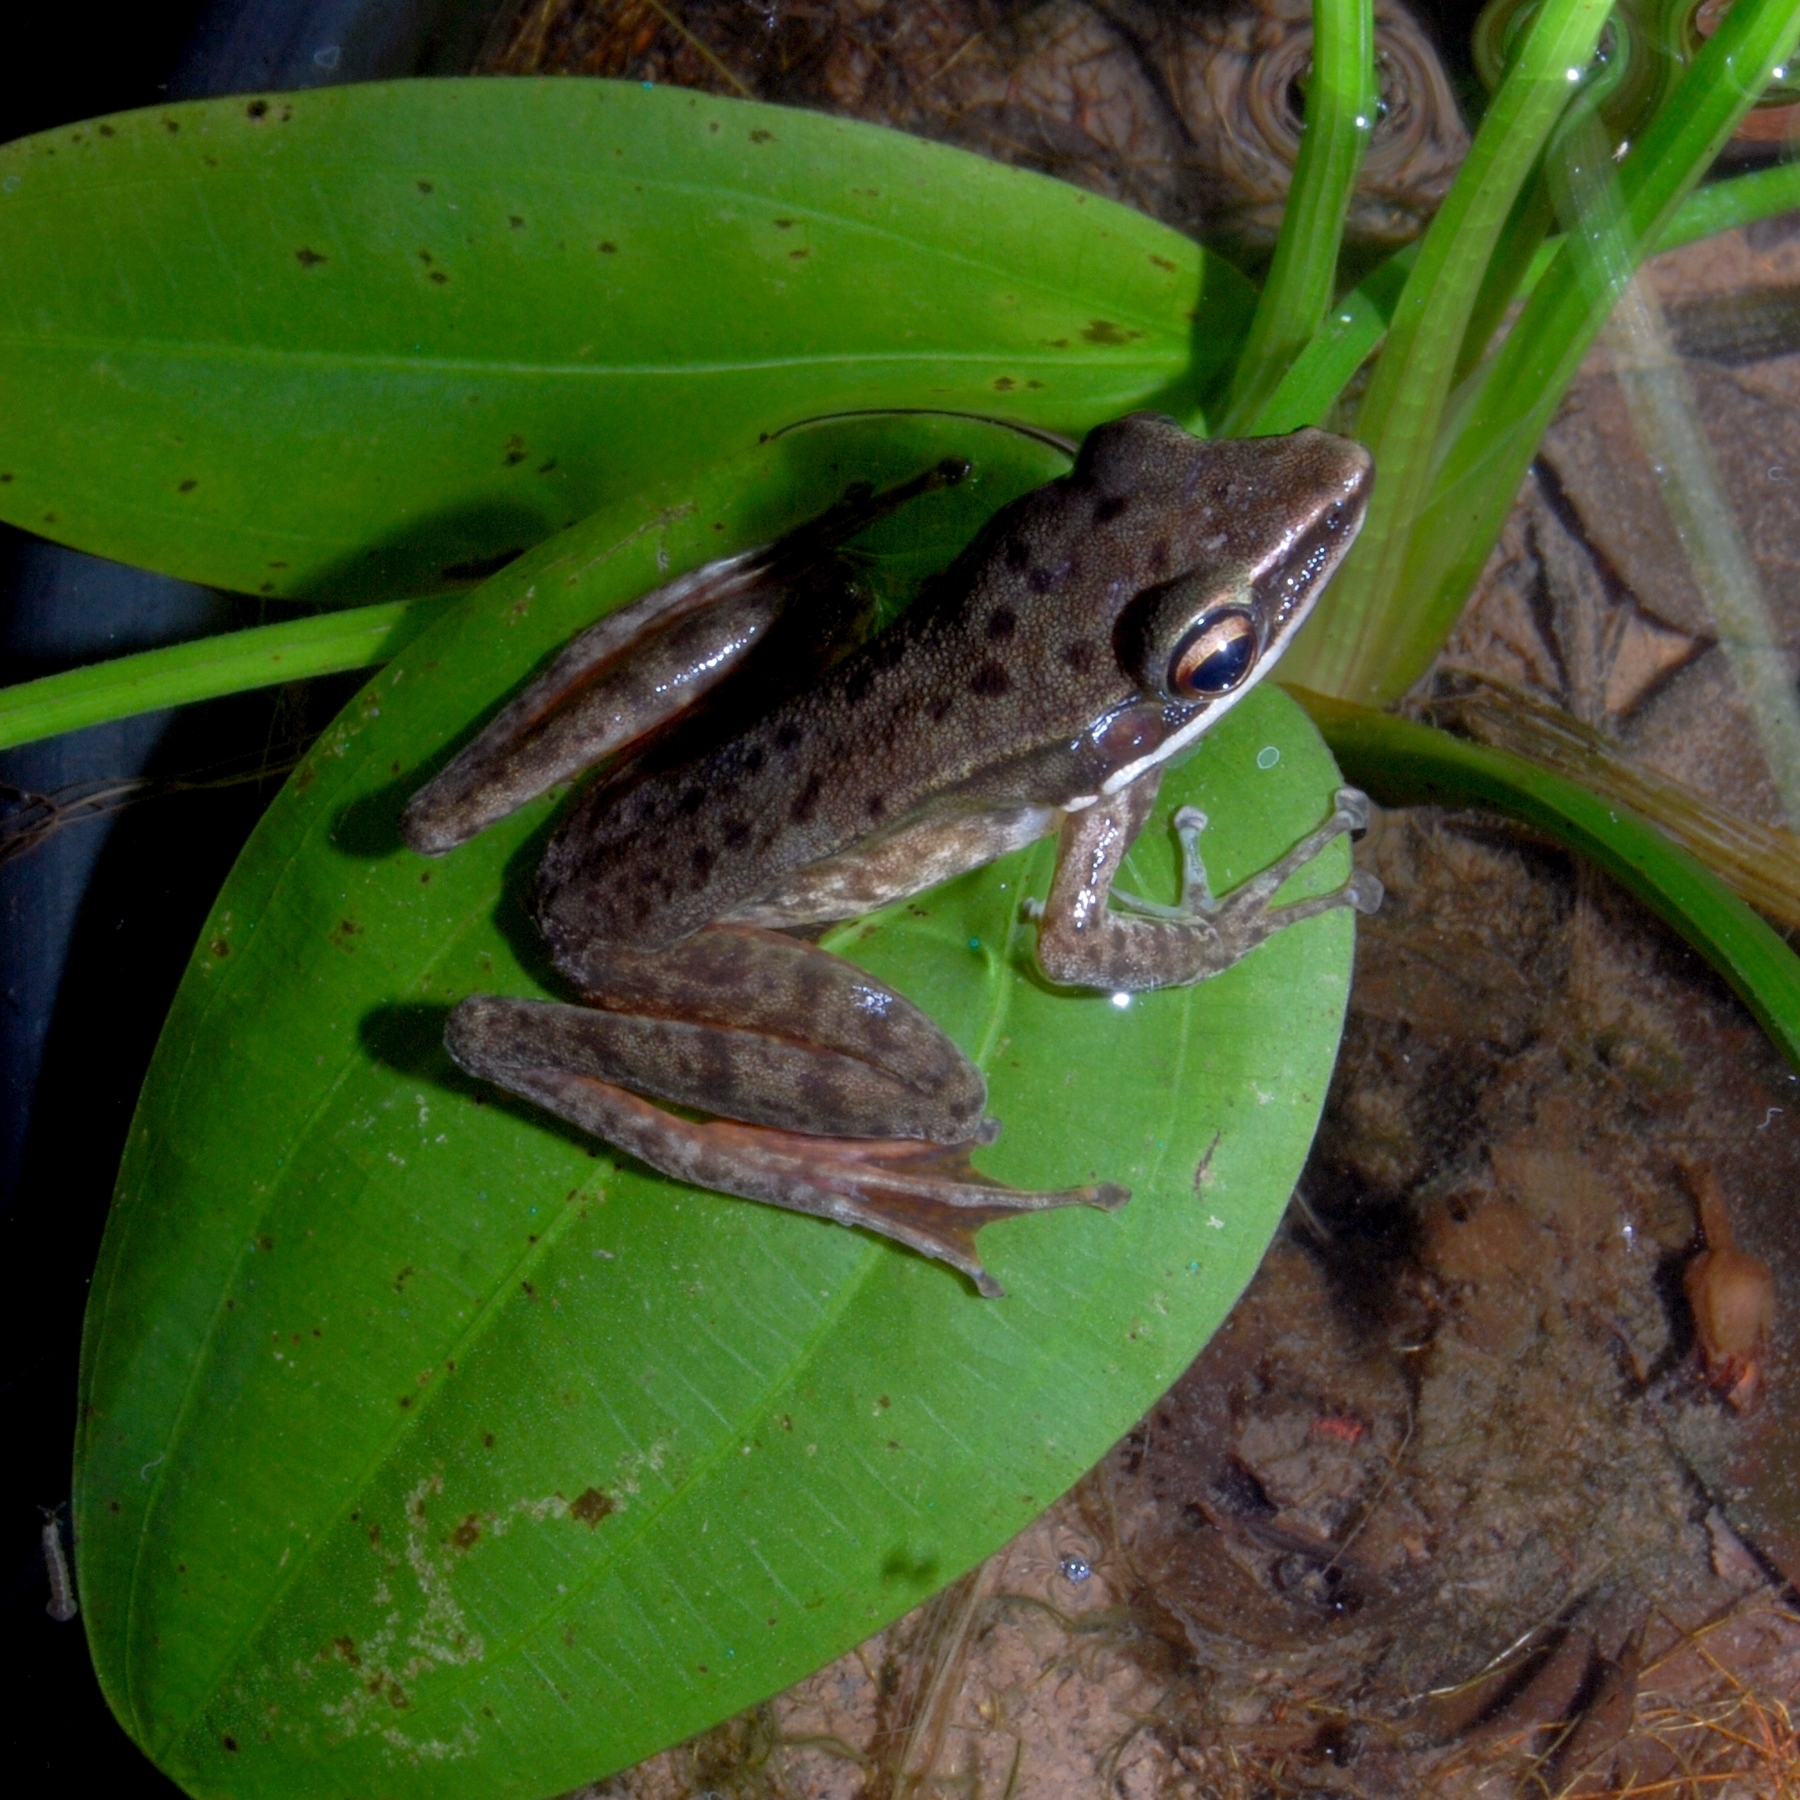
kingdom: Animalia
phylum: Chordata
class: Amphibia
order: Anura
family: Ranidae
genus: Chalcorana
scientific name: Chalcorana chalconota
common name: Schlegel's frog
